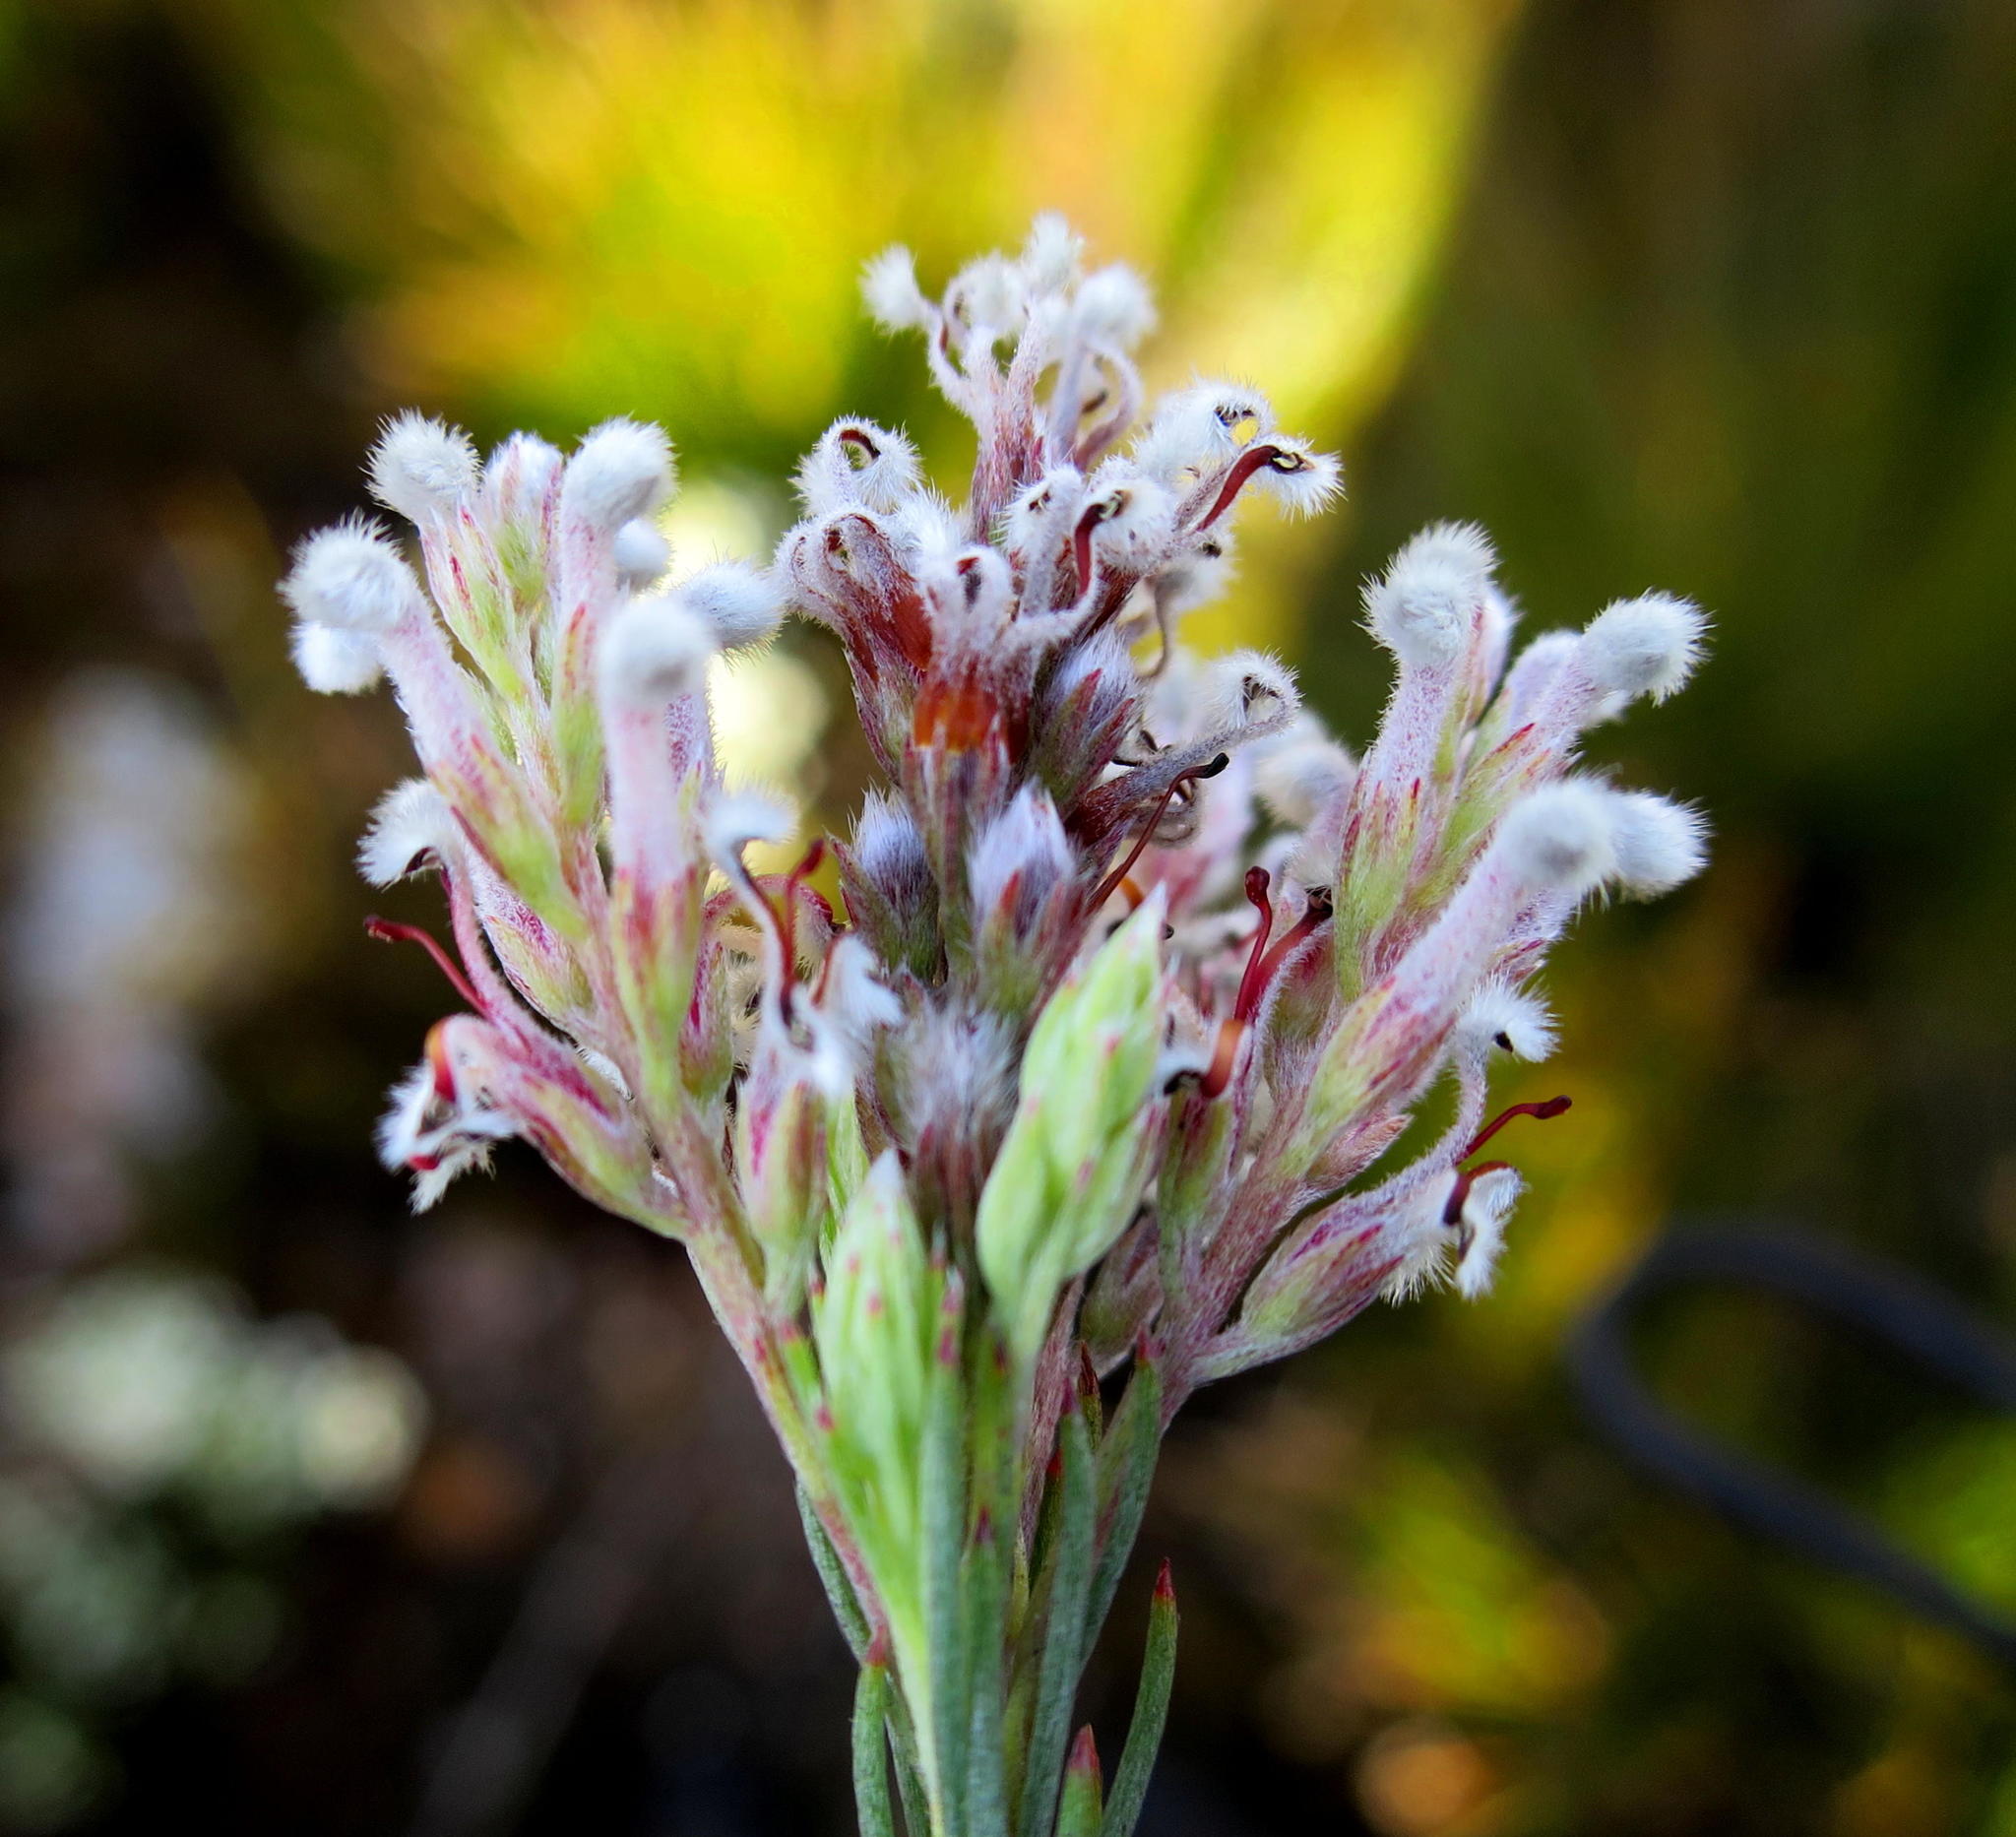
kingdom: Plantae
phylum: Tracheophyta
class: Magnoliopsida
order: Proteales
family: Proteaceae
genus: Spatalla
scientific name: Spatalla barbigera
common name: Fine-leaf spoon
